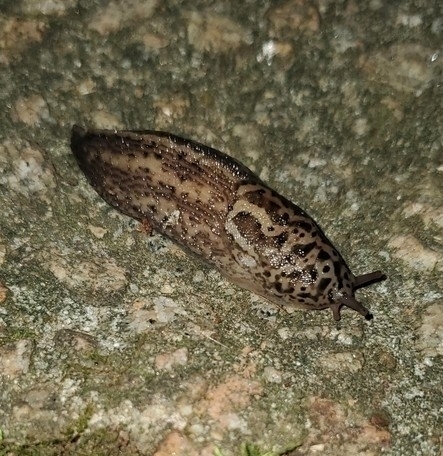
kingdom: Animalia
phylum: Mollusca
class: Gastropoda
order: Stylommatophora
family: Limacidae
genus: Limax
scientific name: Limax maximus
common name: Great grey slug
